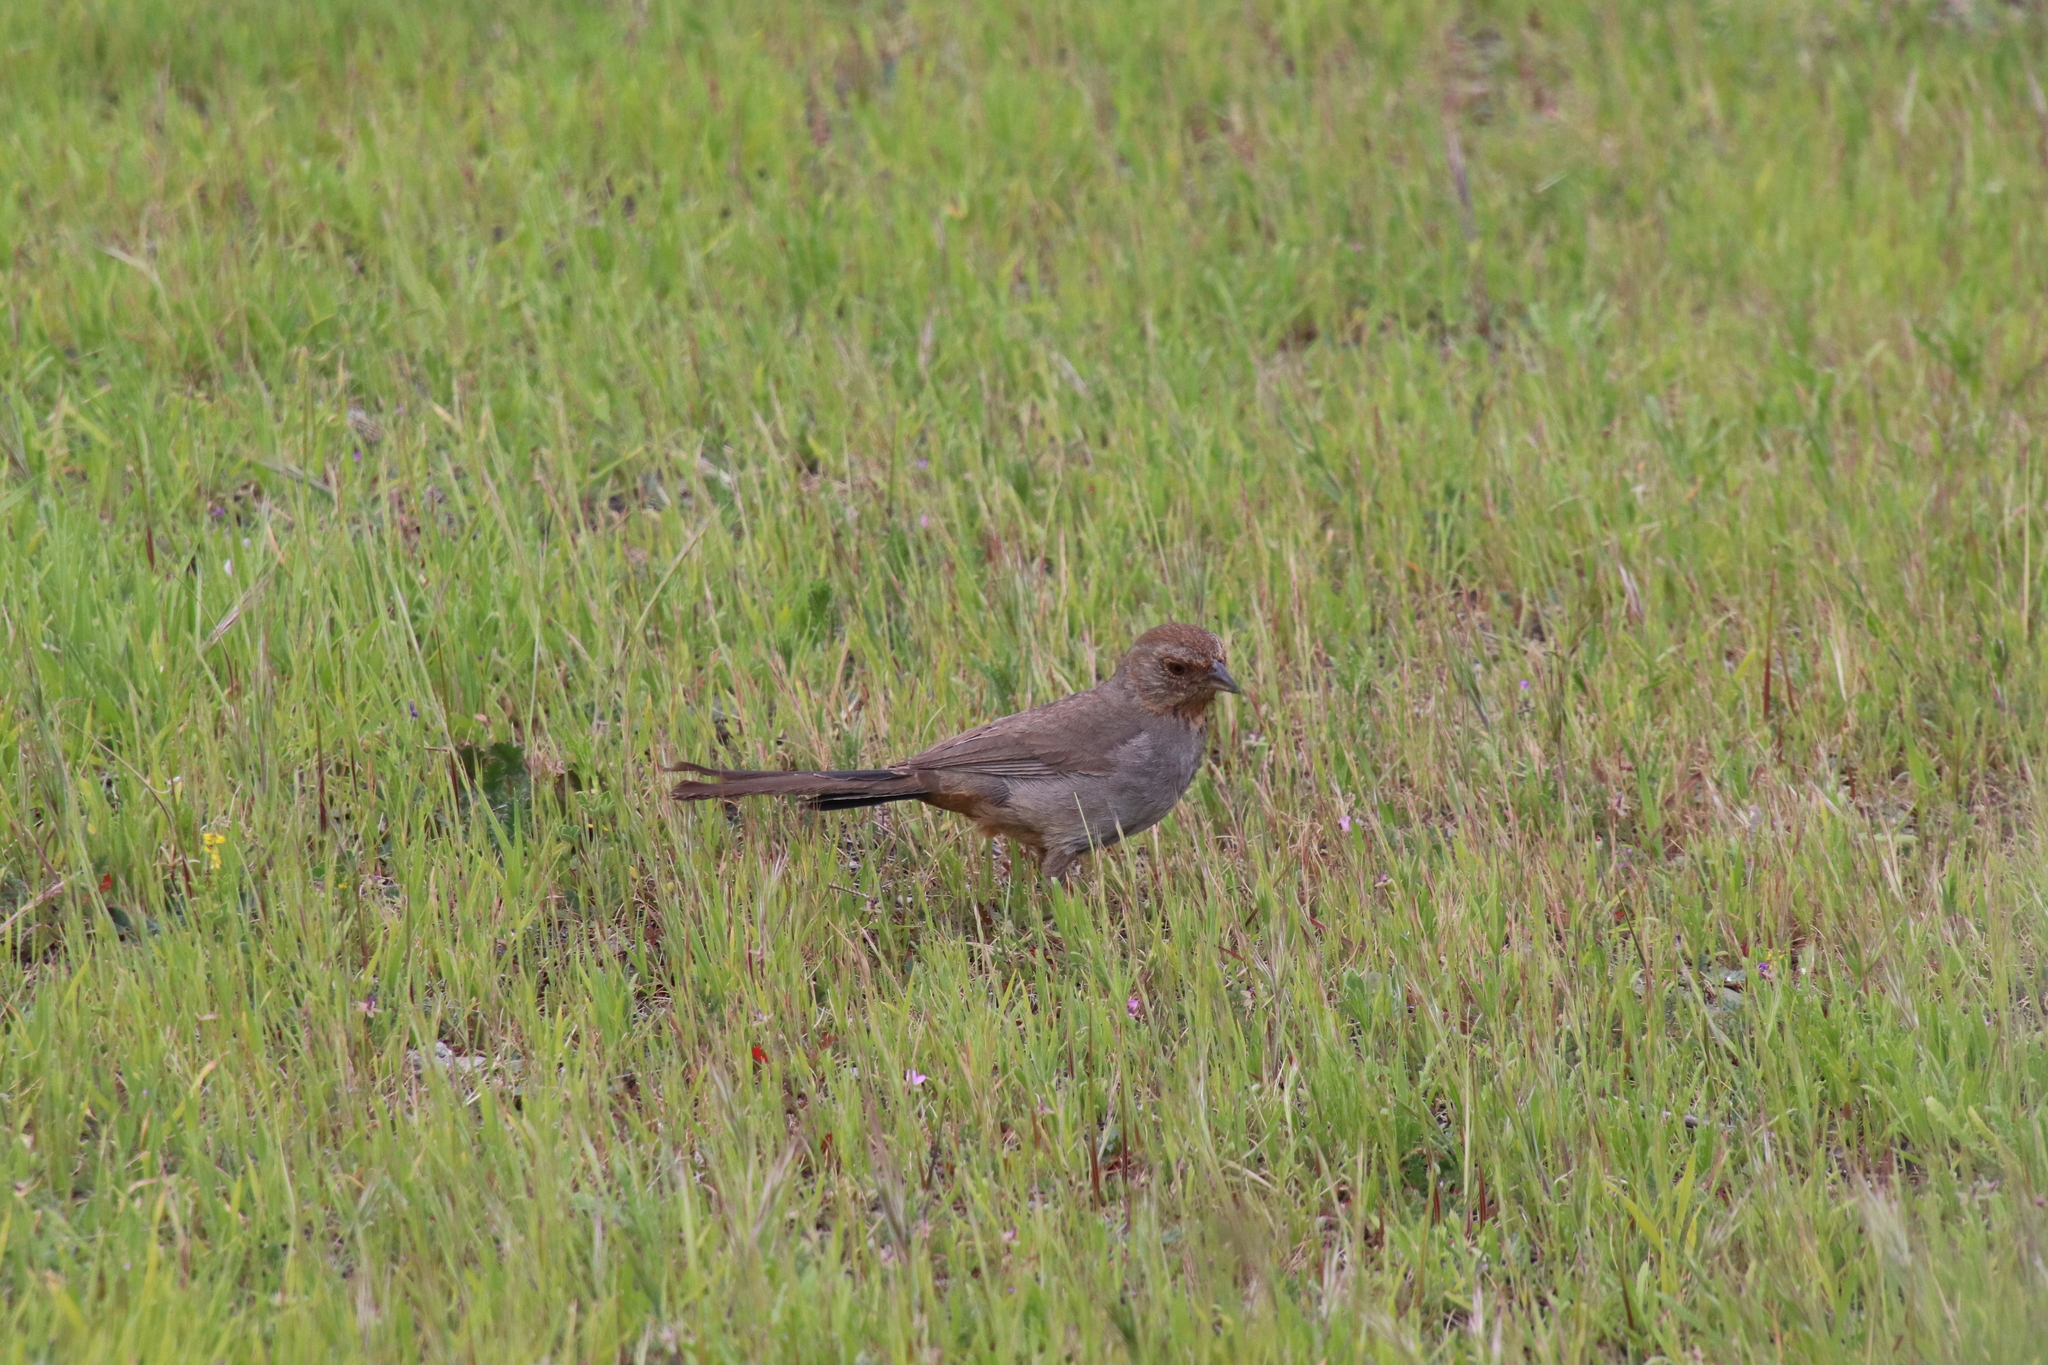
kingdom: Animalia
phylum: Chordata
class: Aves
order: Passeriformes
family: Passerellidae
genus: Melozone
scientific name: Melozone crissalis
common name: California towhee
